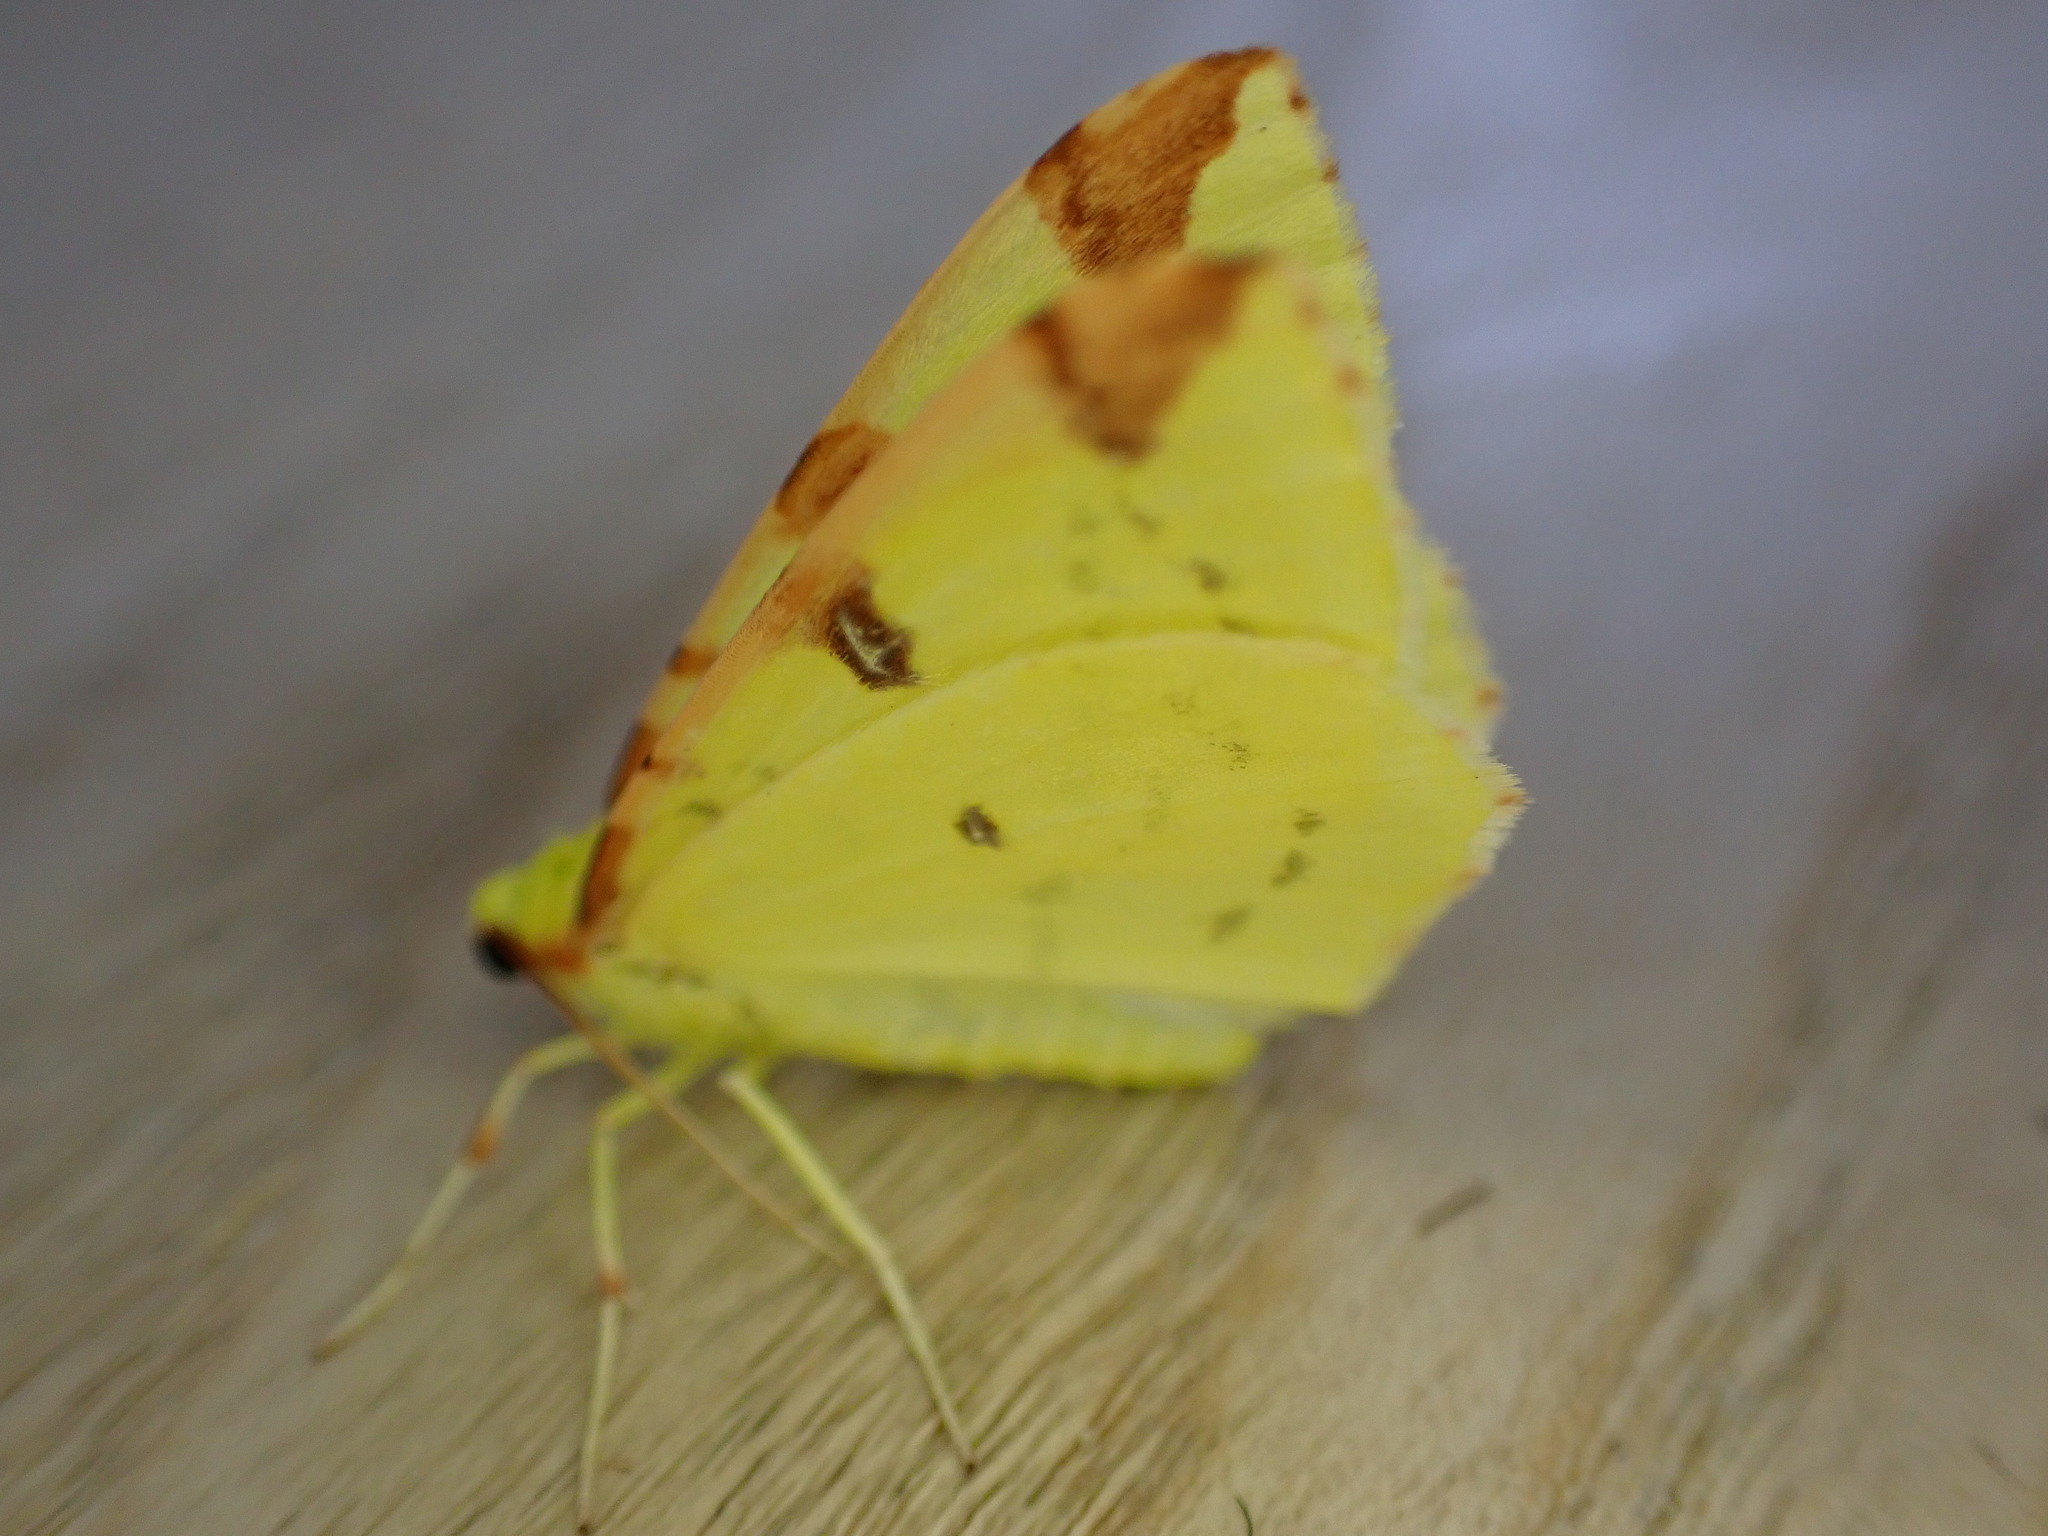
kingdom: Animalia
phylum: Arthropoda
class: Insecta
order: Lepidoptera
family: Geometridae
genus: Opisthograptis
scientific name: Opisthograptis luteolata
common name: Brimstone moth
